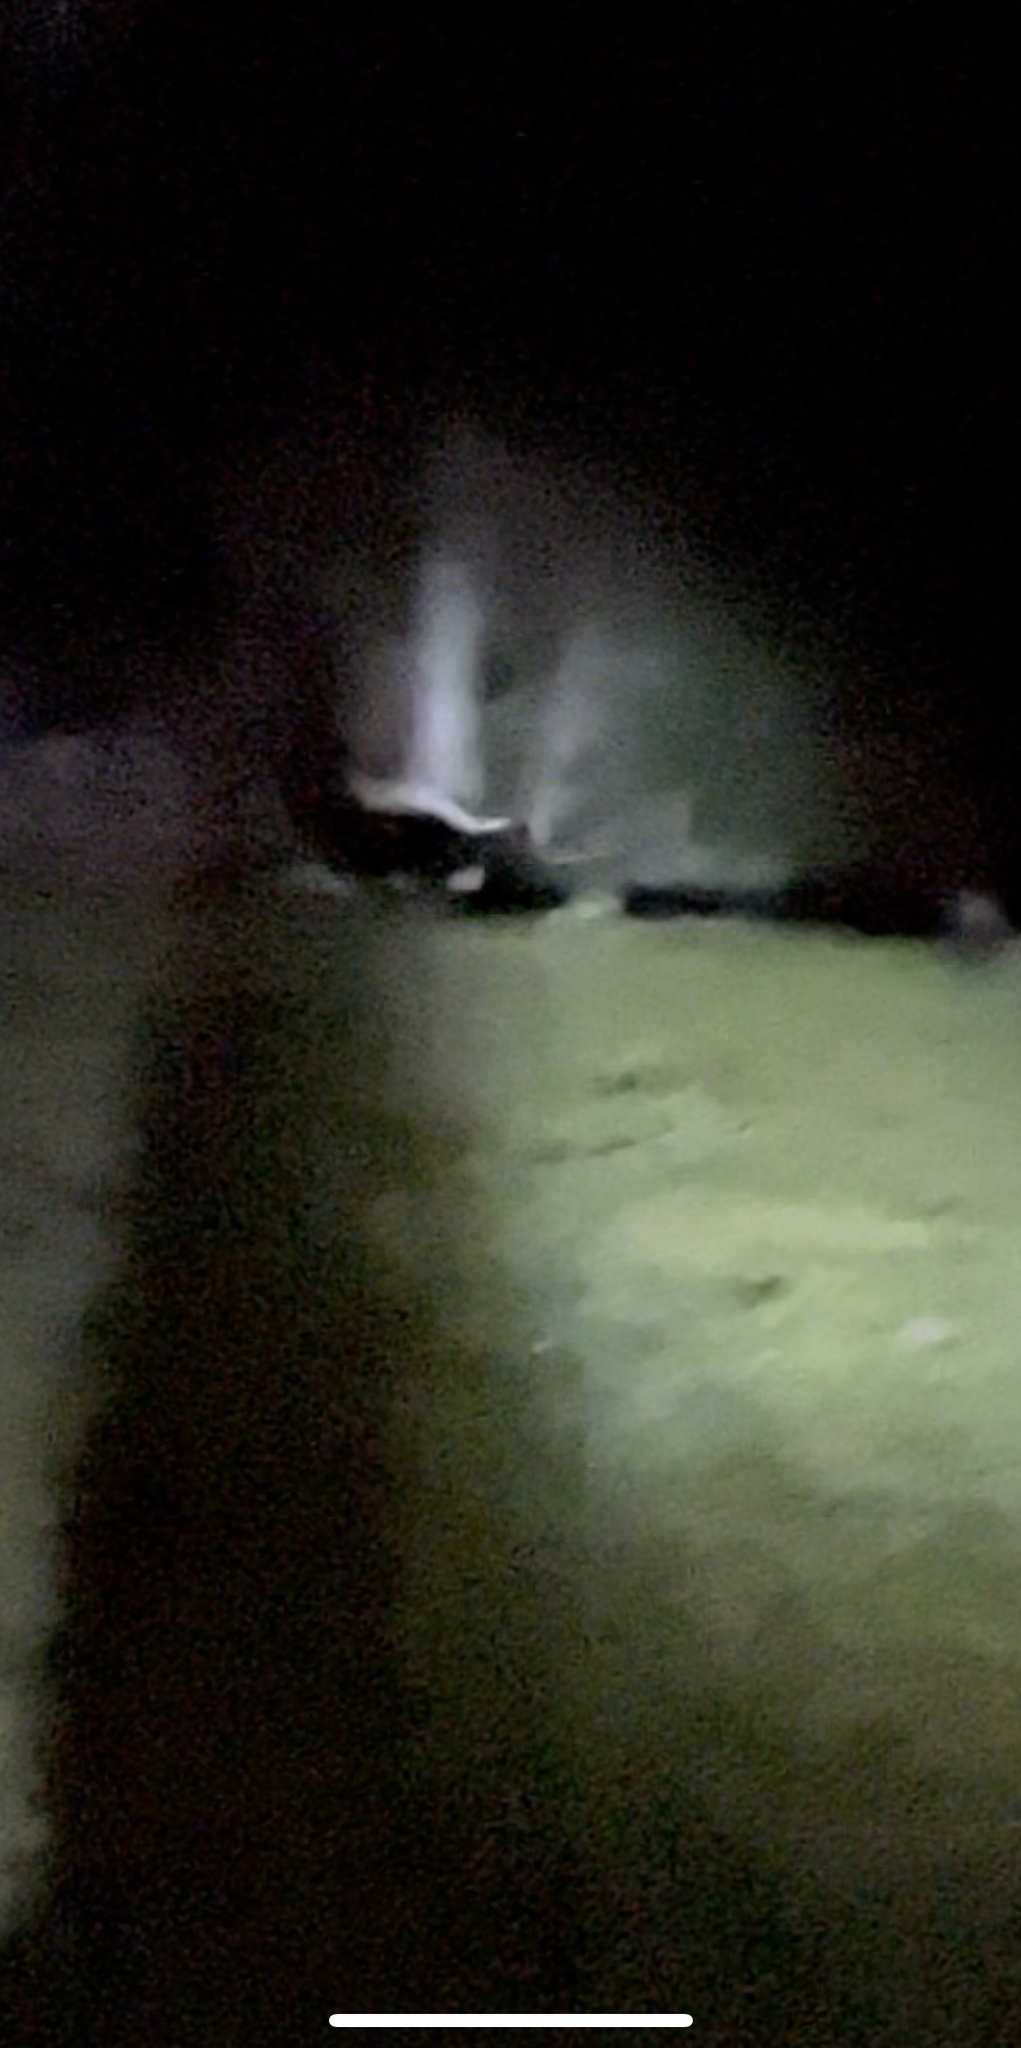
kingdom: Animalia
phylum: Chordata
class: Mammalia
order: Carnivora
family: Mephitidae
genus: Mephitis
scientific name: Mephitis mephitis
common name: Striped skunk
